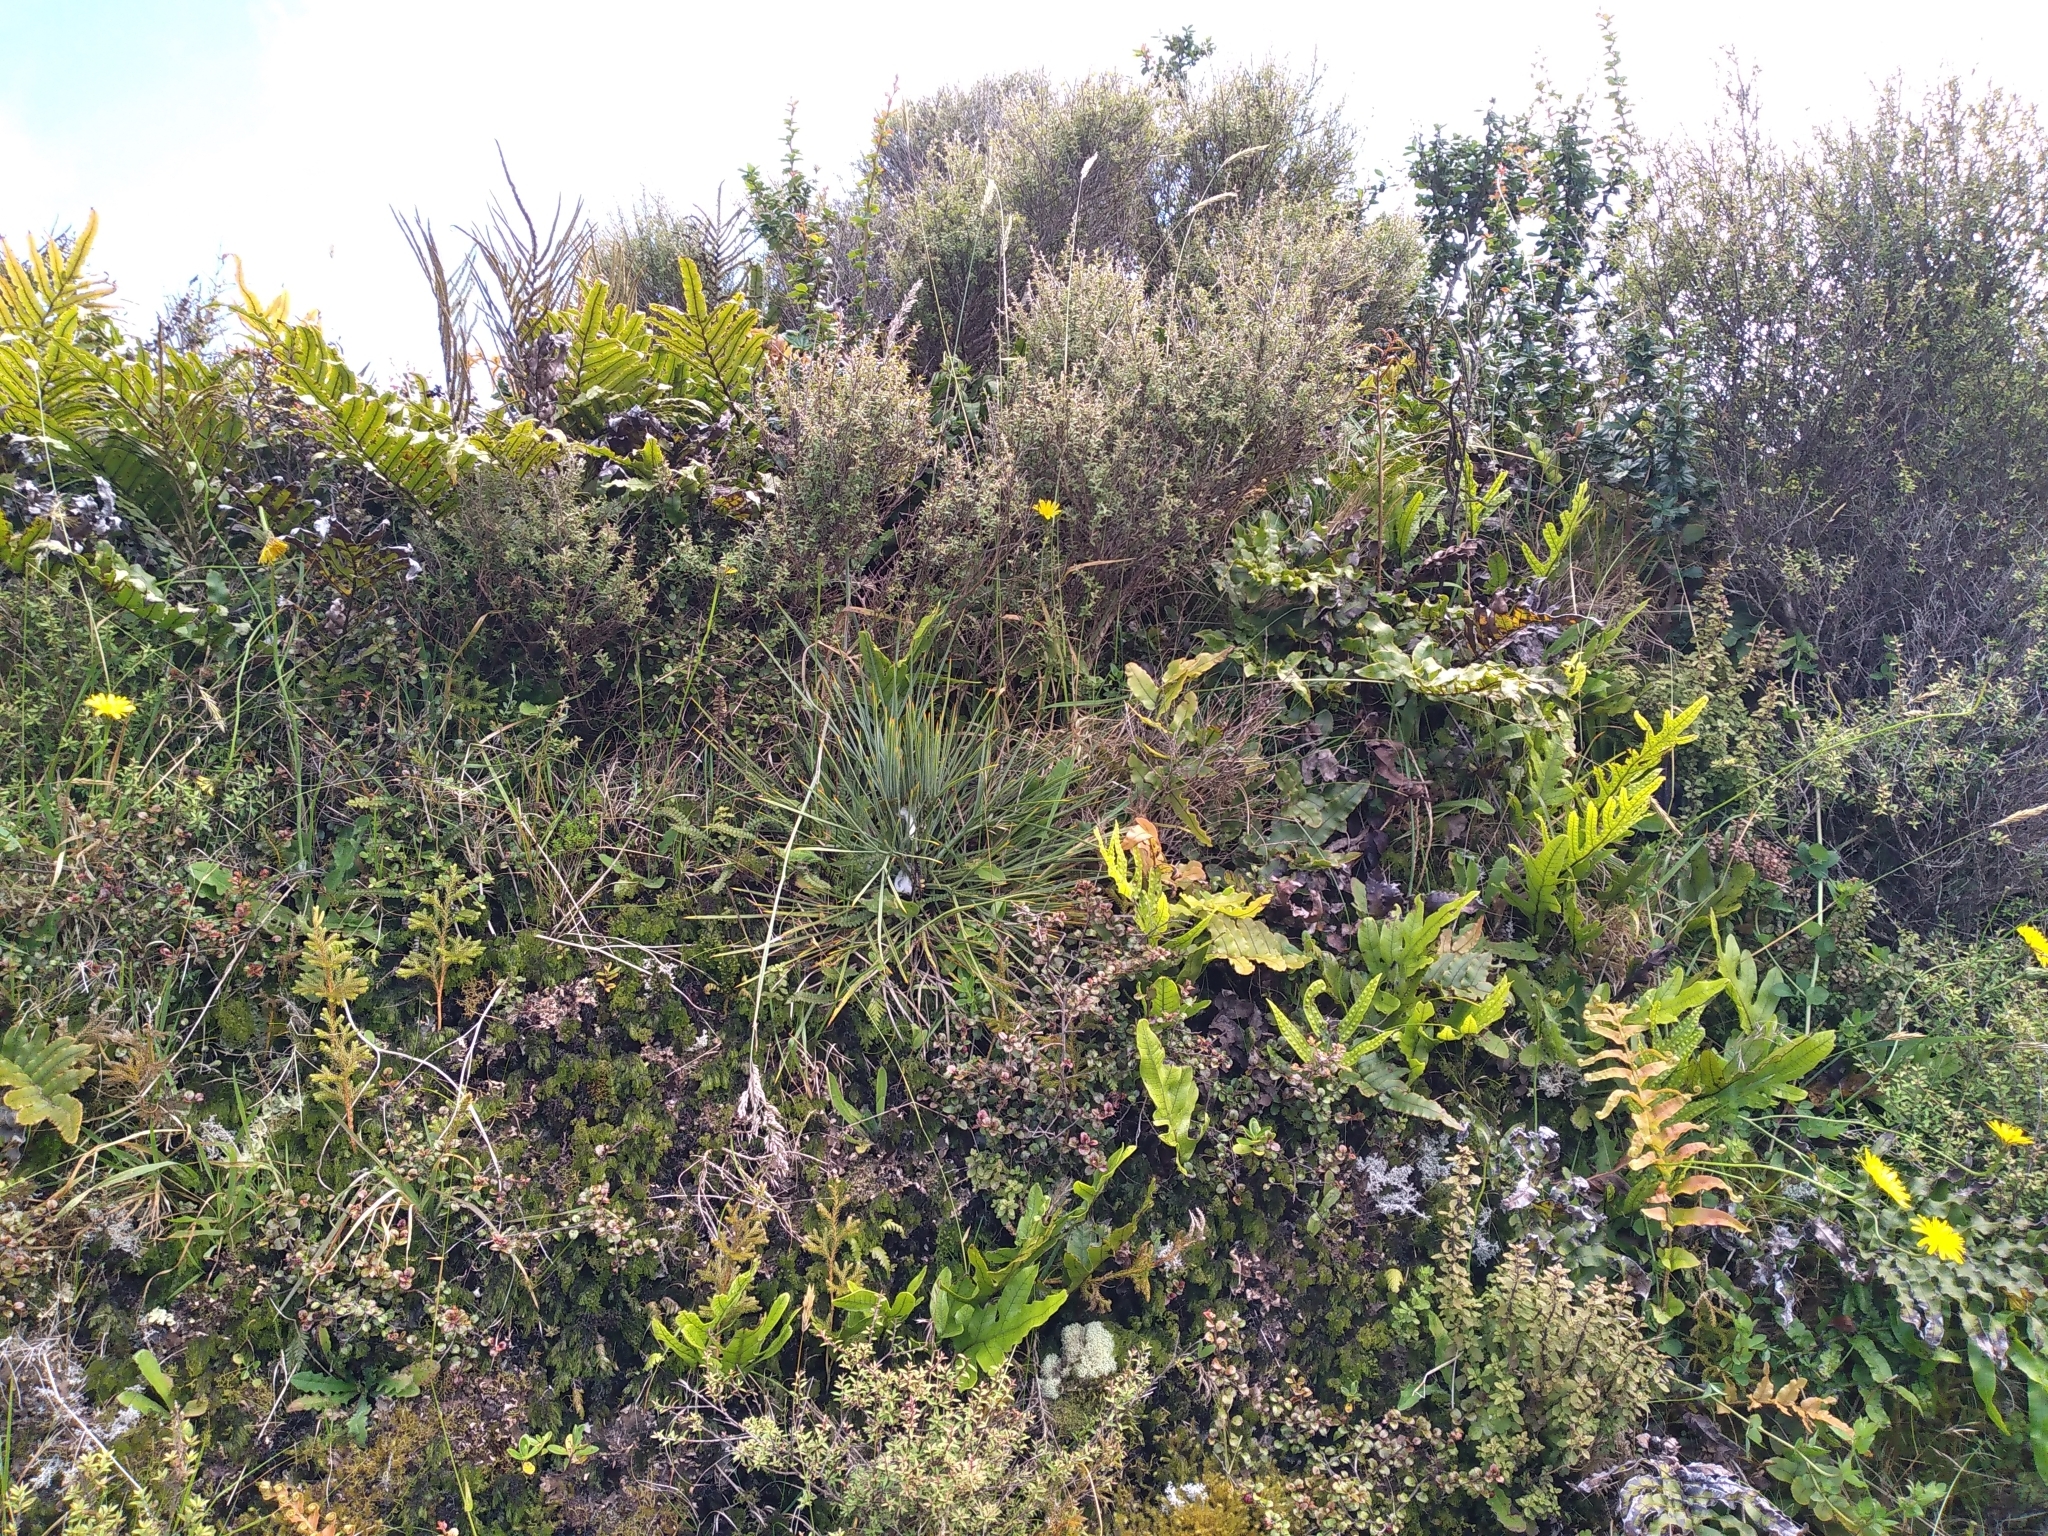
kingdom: Plantae
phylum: Tracheophyta
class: Magnoliopsida
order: Apiales
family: Apiaceae
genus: Aciphylla
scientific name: Aciphylla squarrosa
